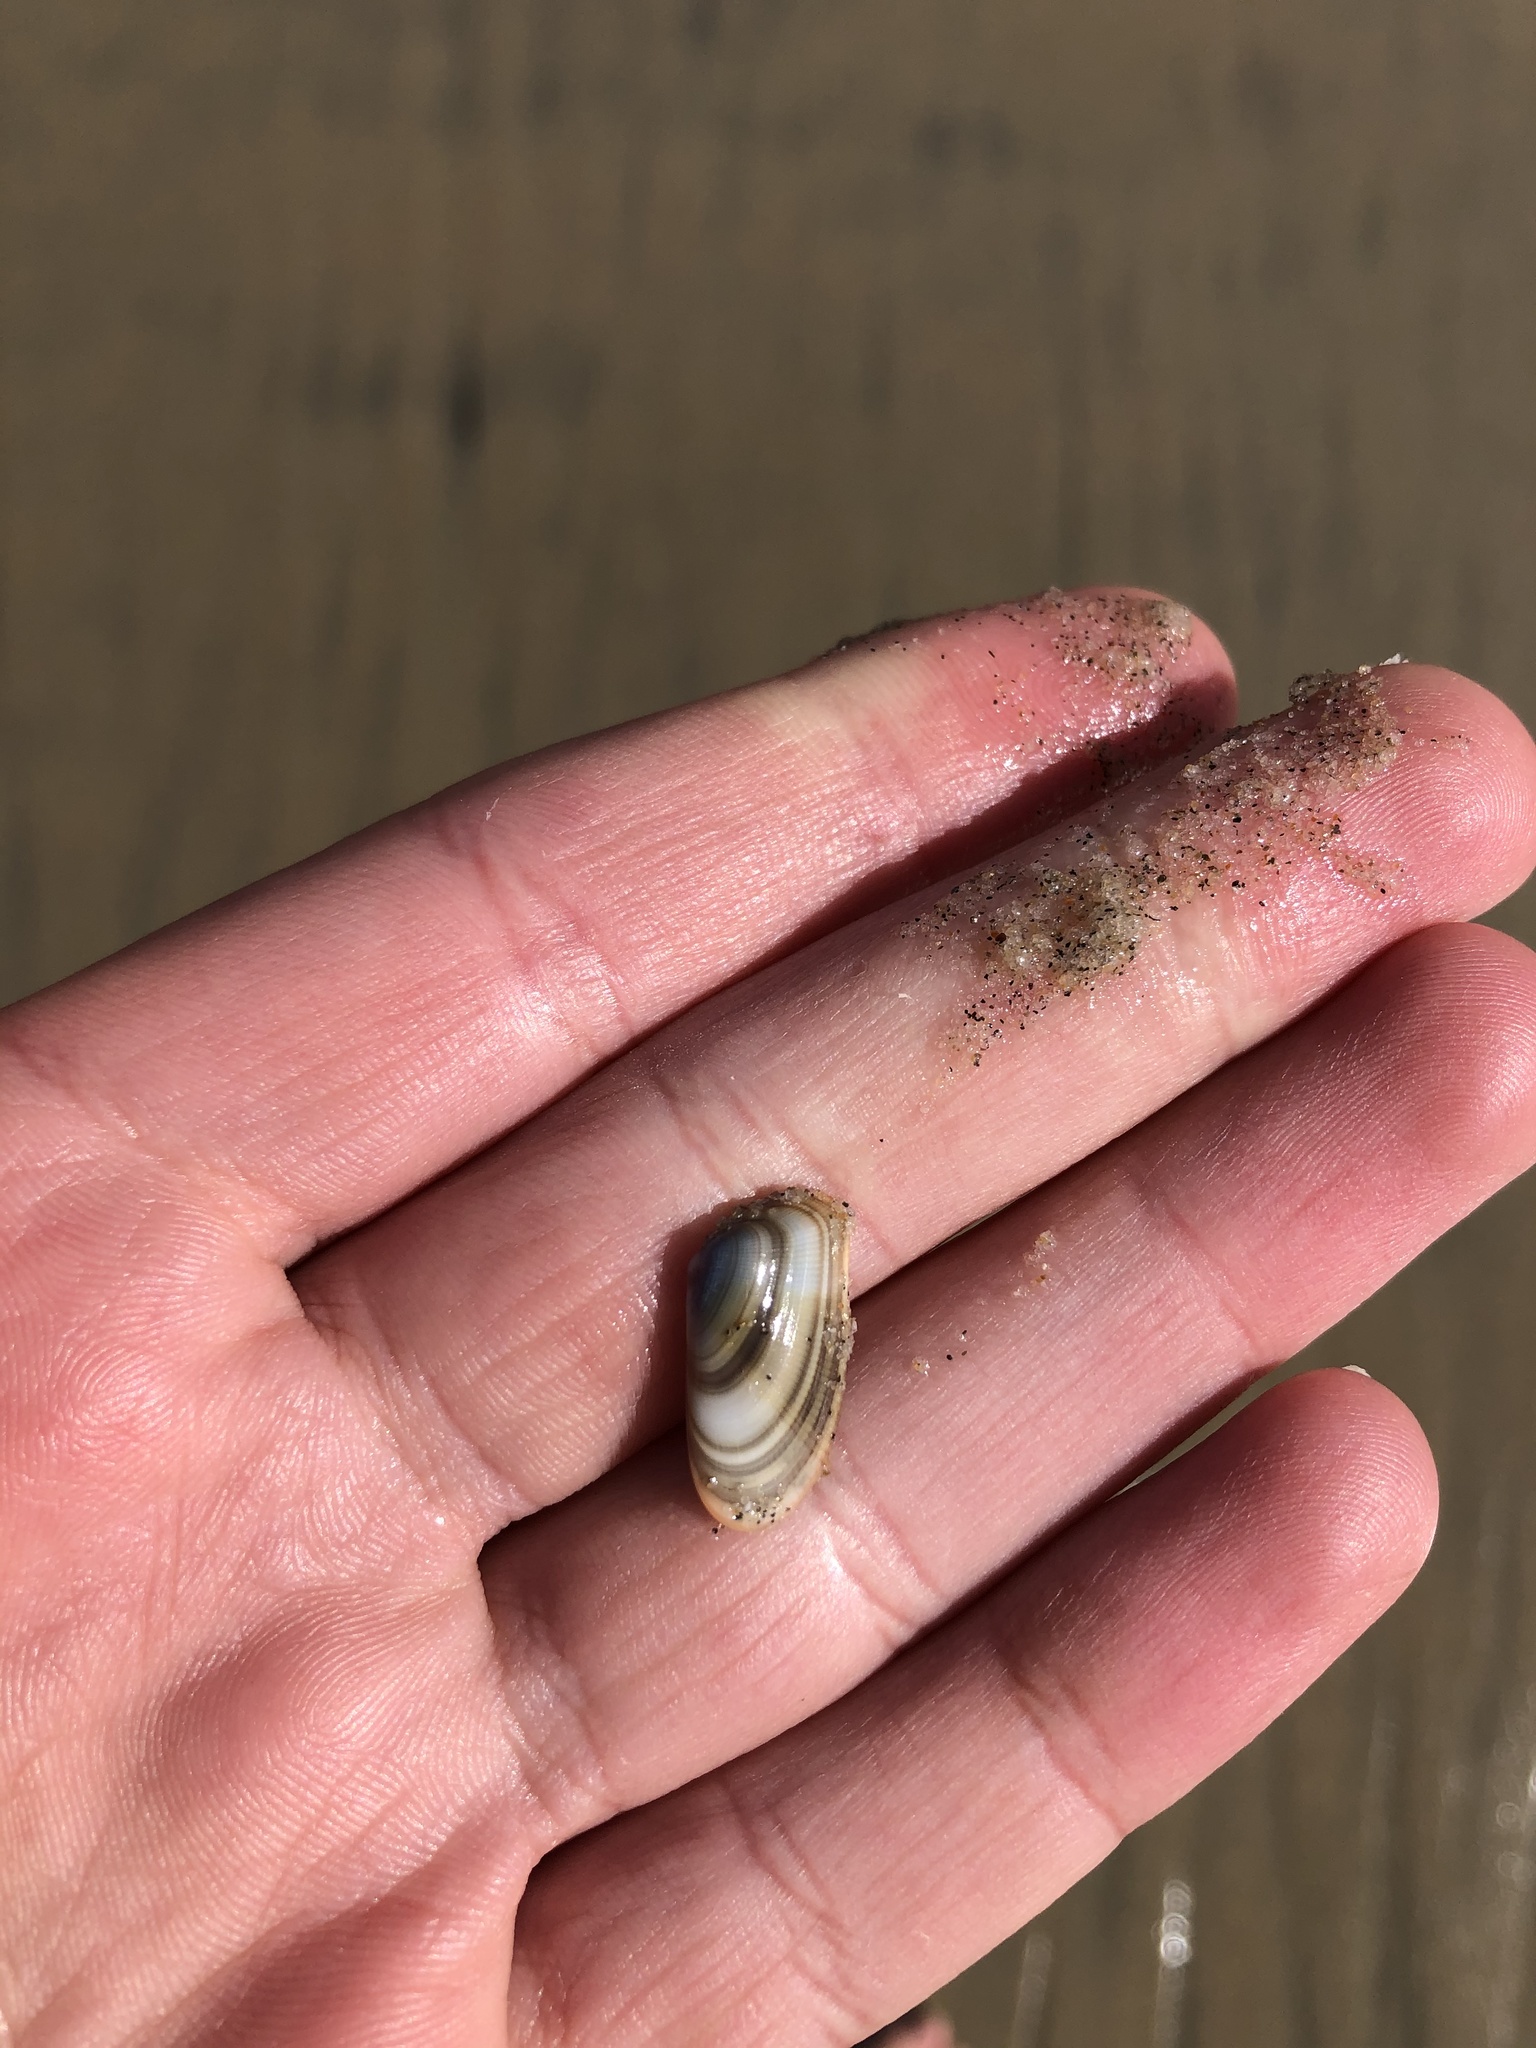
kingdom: Animalia
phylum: Mollusca
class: Bivalvia
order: Cardiida
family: Donacidae
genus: Donax
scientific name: Donax gouldii
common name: Gould beanclam
